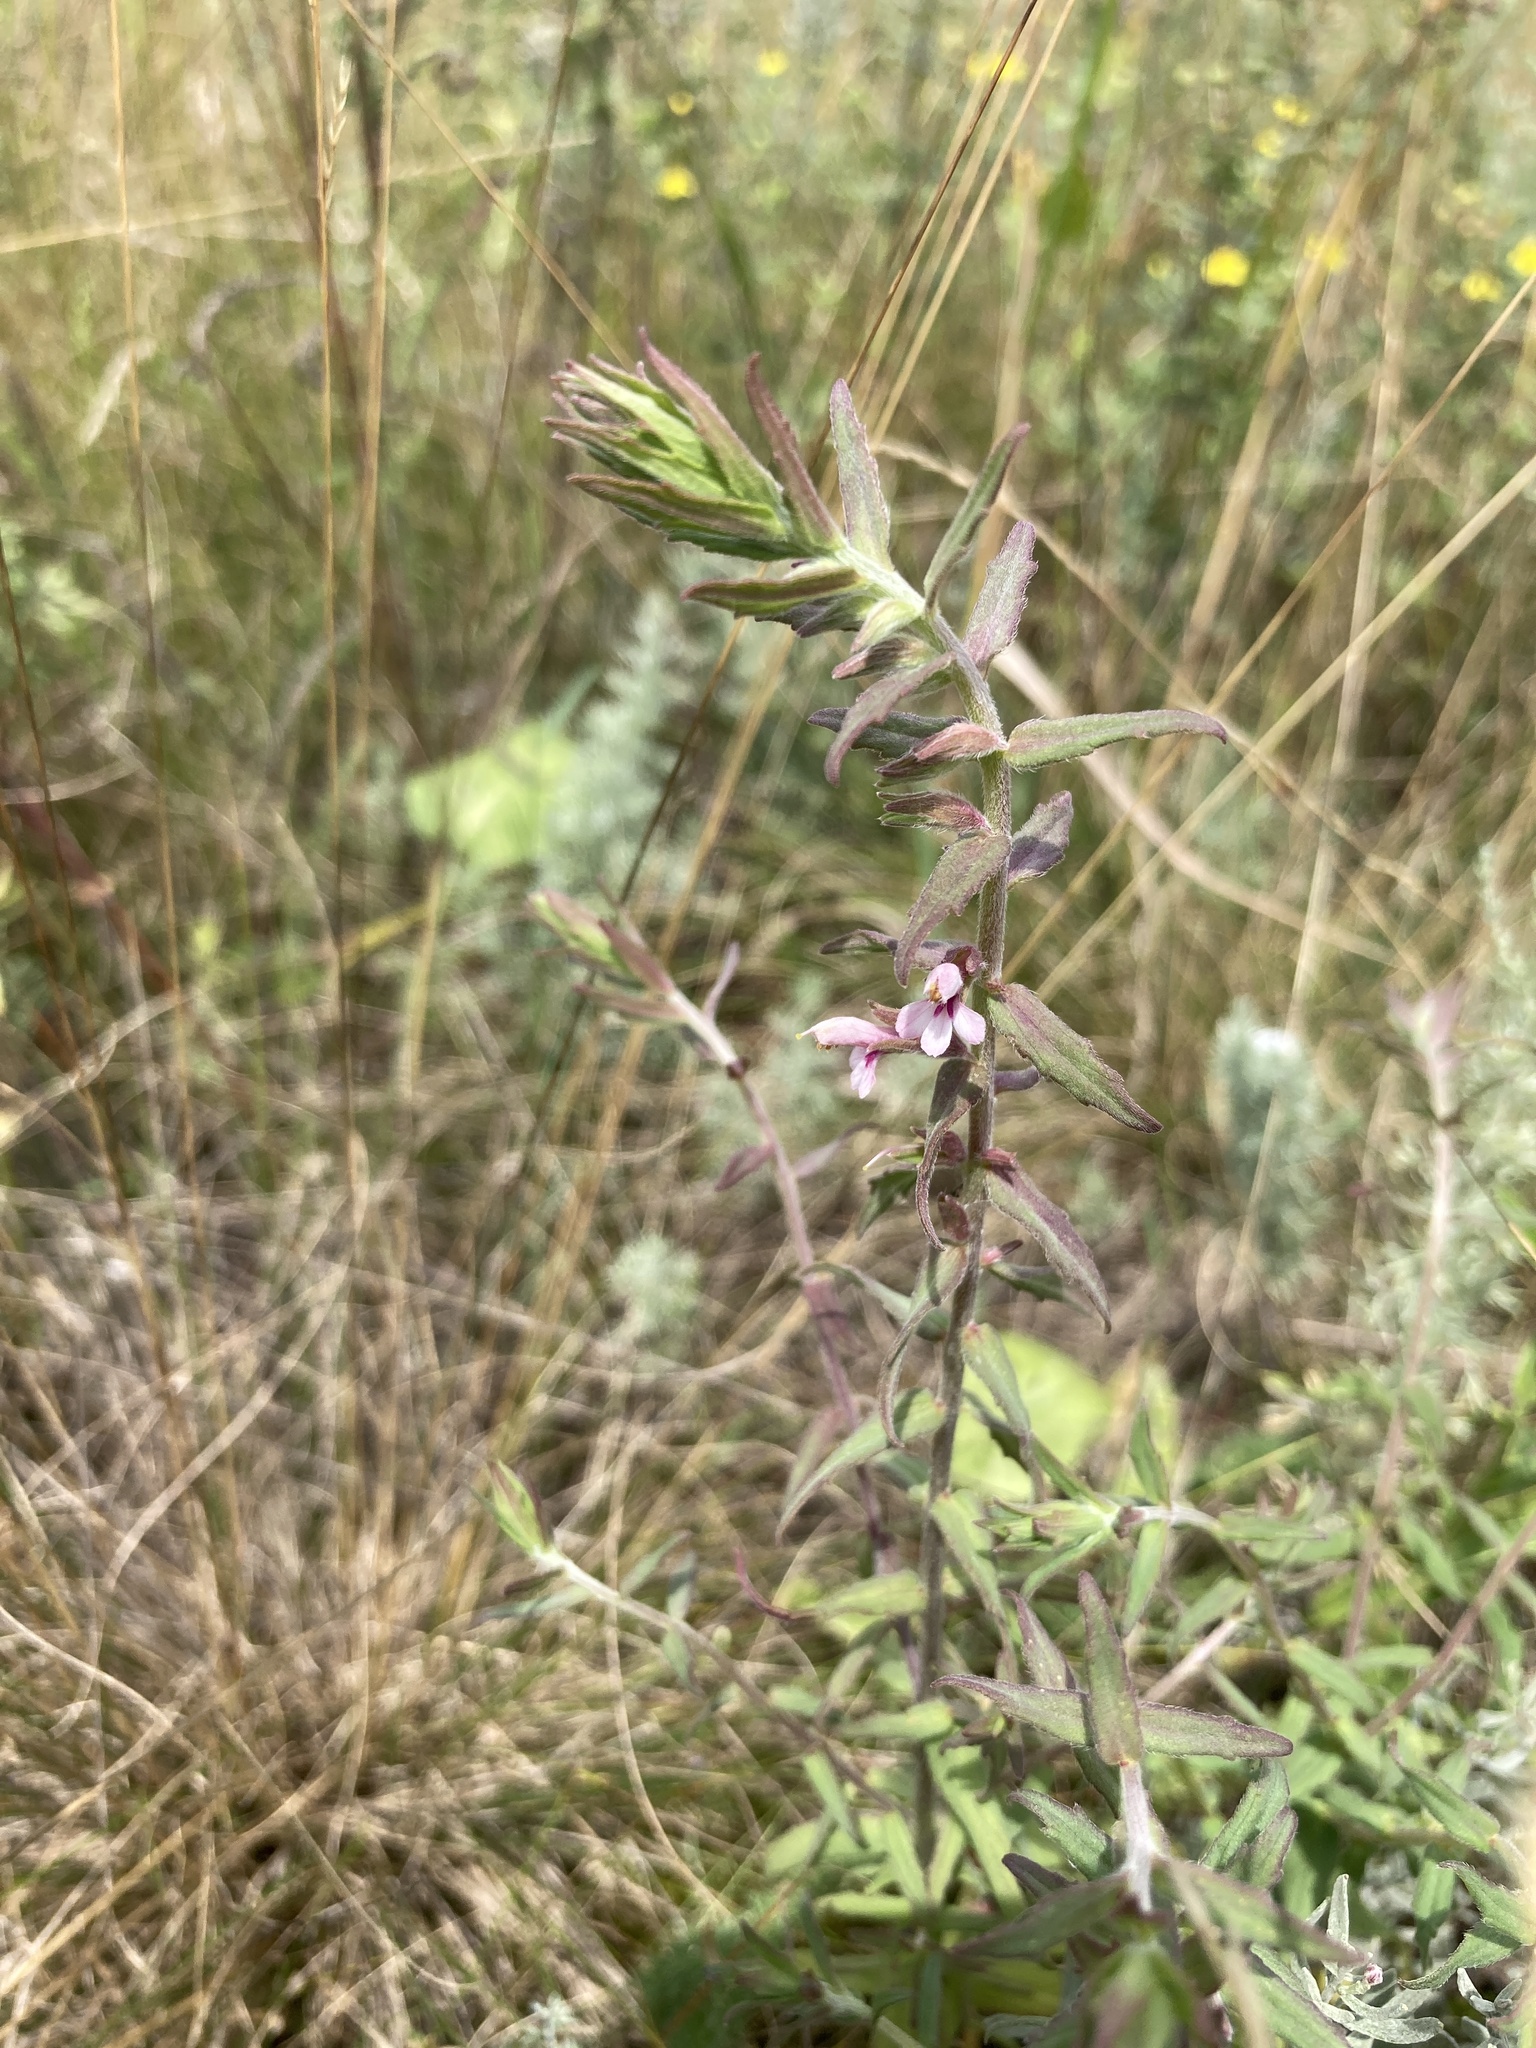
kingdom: Plantae
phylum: Tracheophyta
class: Magnoliopsida
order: Lamiales
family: Orobanchaceae
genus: Odontites
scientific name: Odontites vulgaris
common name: Broomrape
